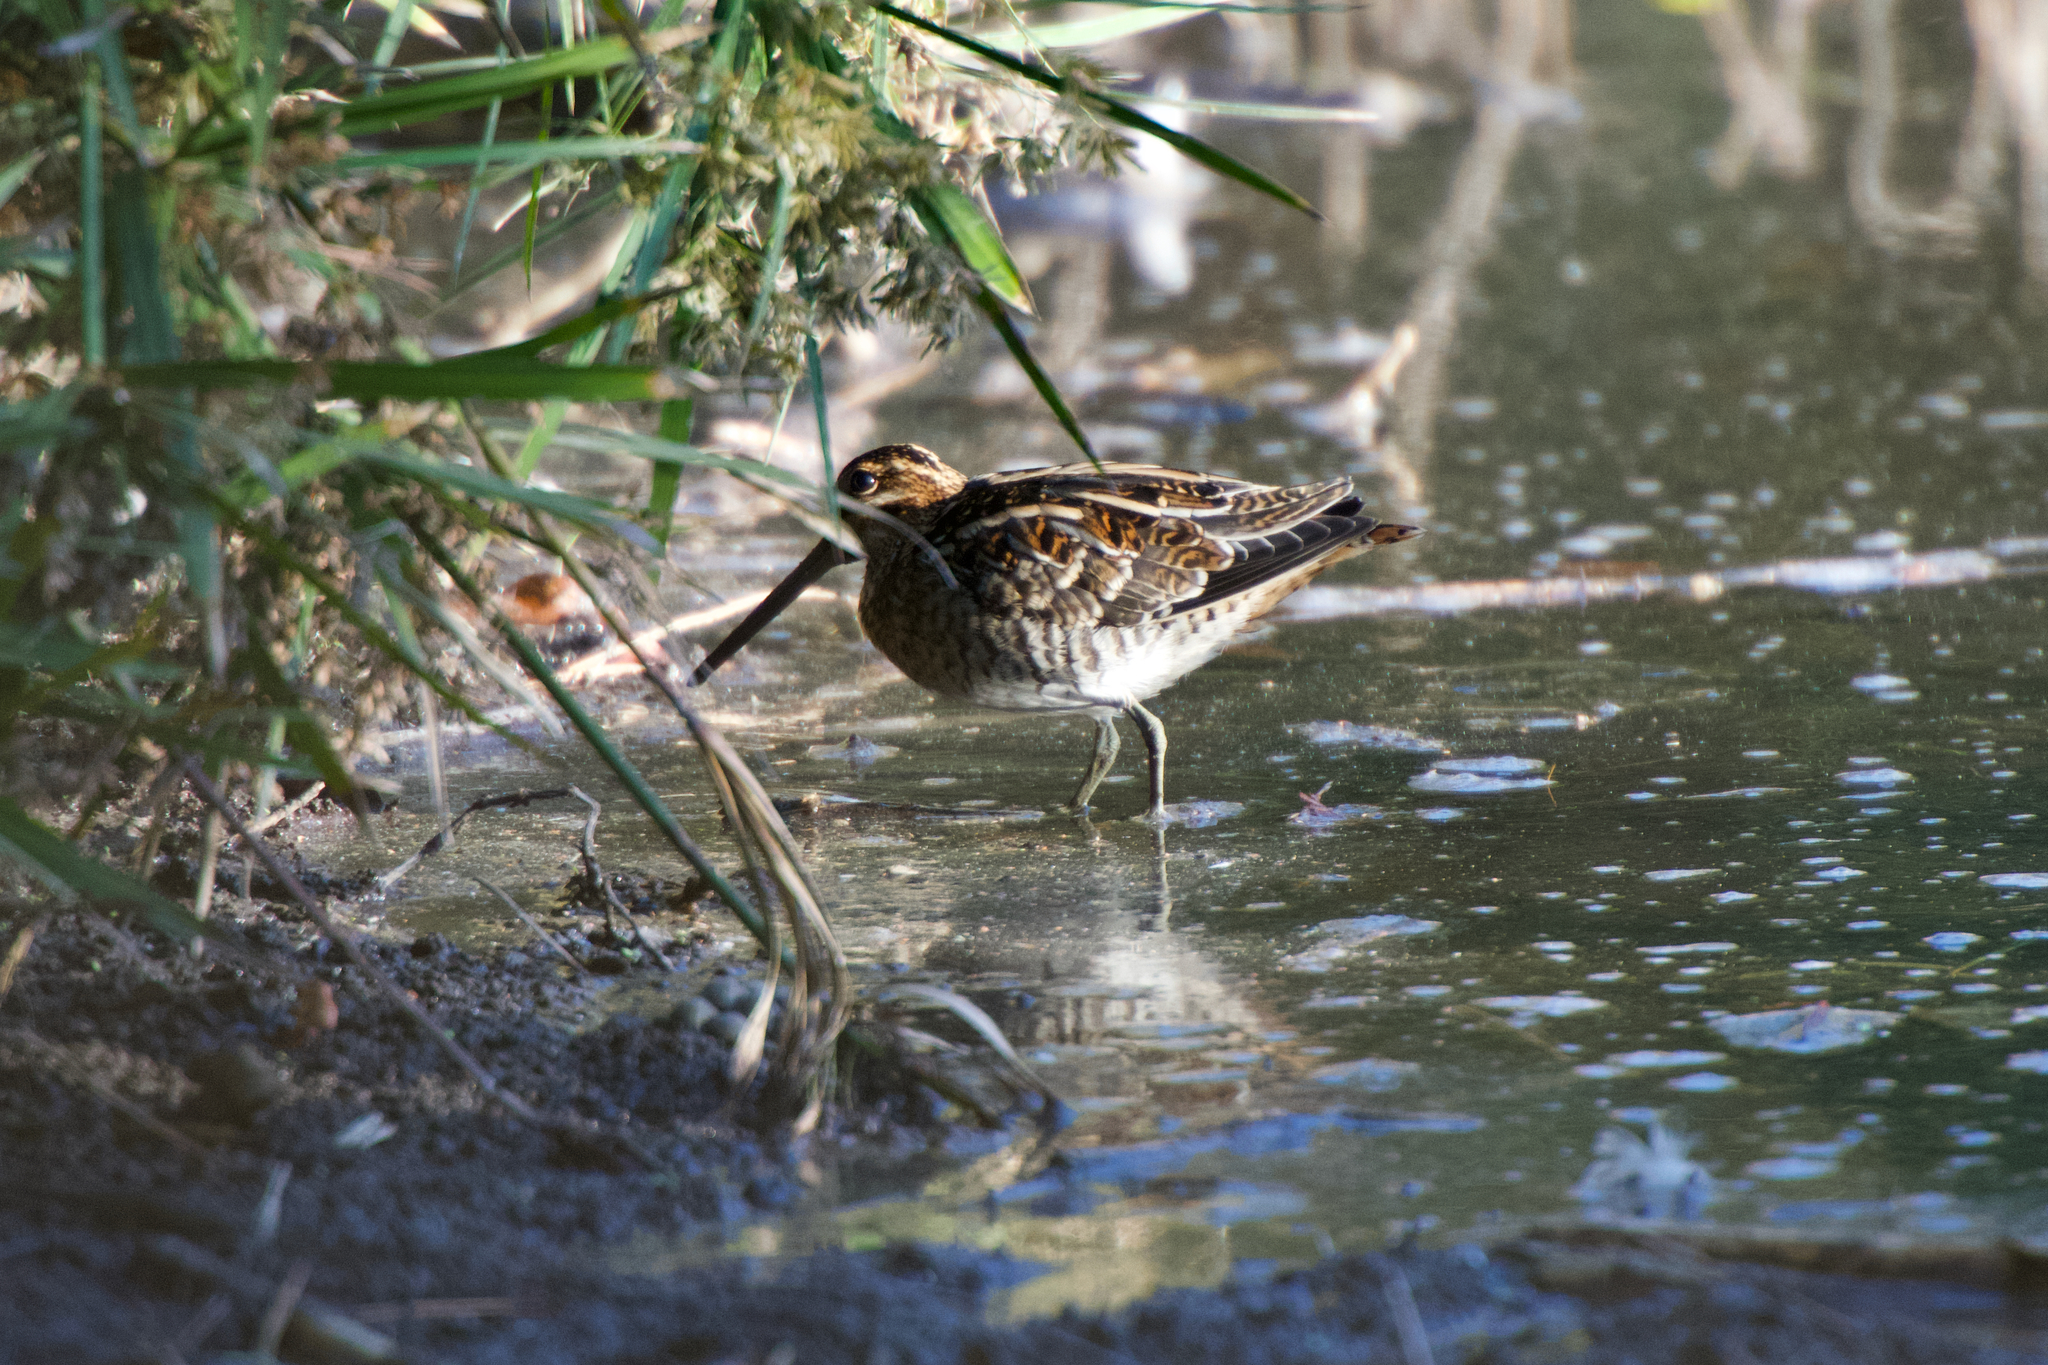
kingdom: Animalia
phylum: Chordata
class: Aves
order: Charadriiformes
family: Scolopacidae
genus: Gallinago
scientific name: Gallinago delicata
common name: Wilson's snipe
